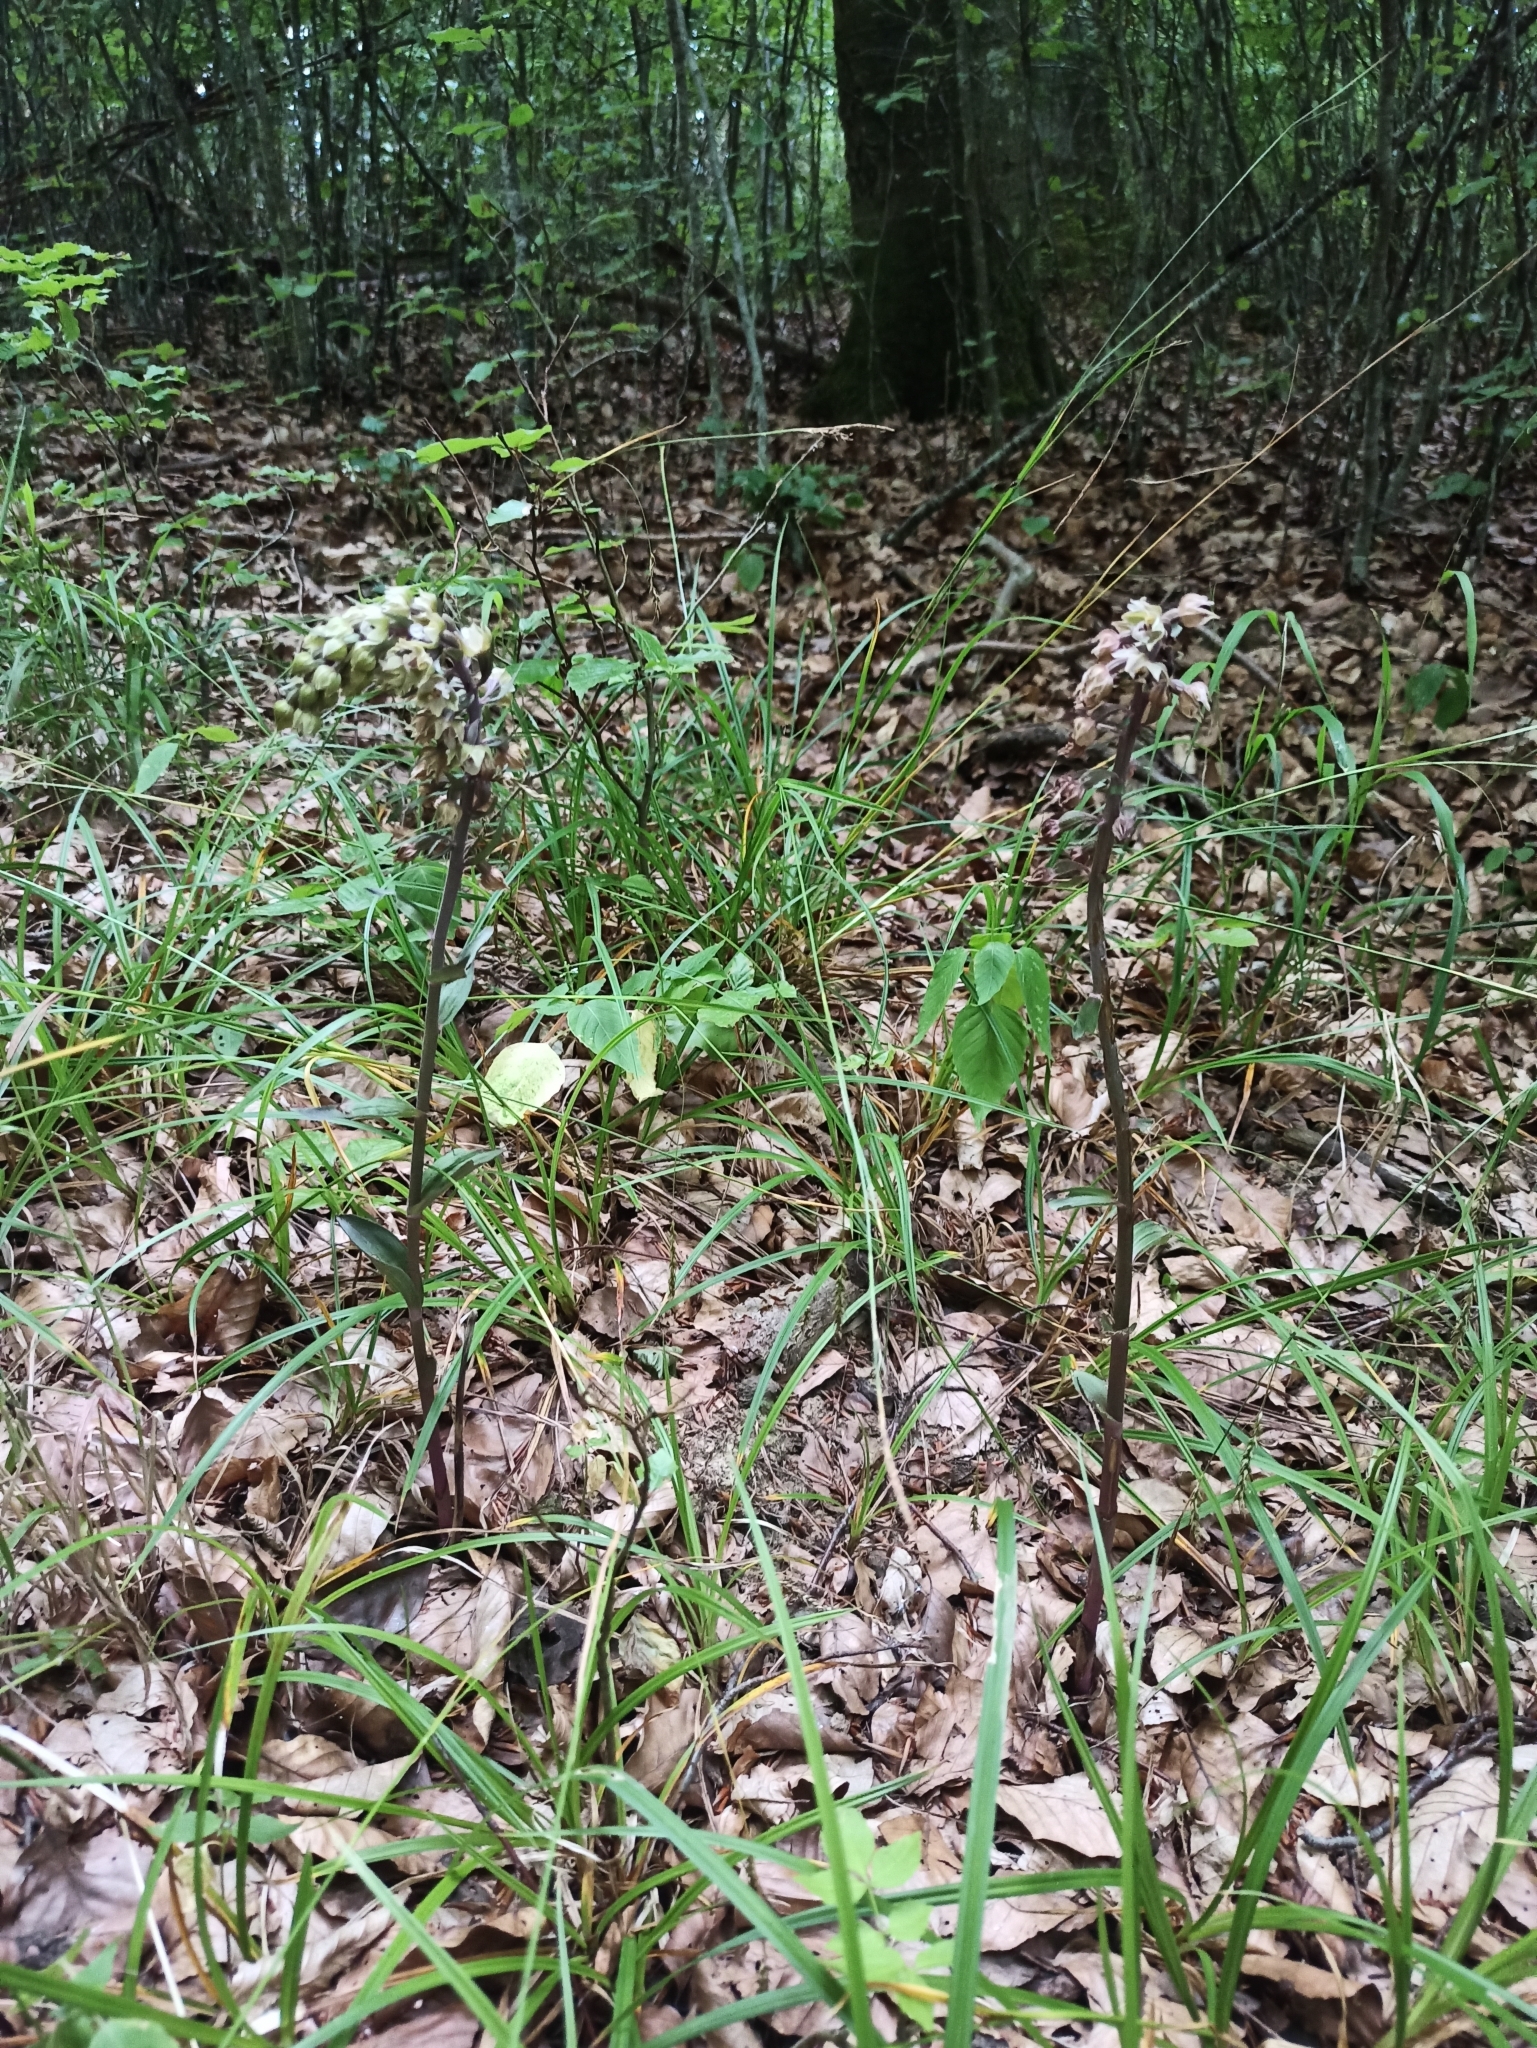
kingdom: Plantae
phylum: Tracheophyta
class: Liliopsida
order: Asparagales
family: Orchidaceae
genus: Epipactis
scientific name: Epipactis purpurata
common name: Violet helleborine
